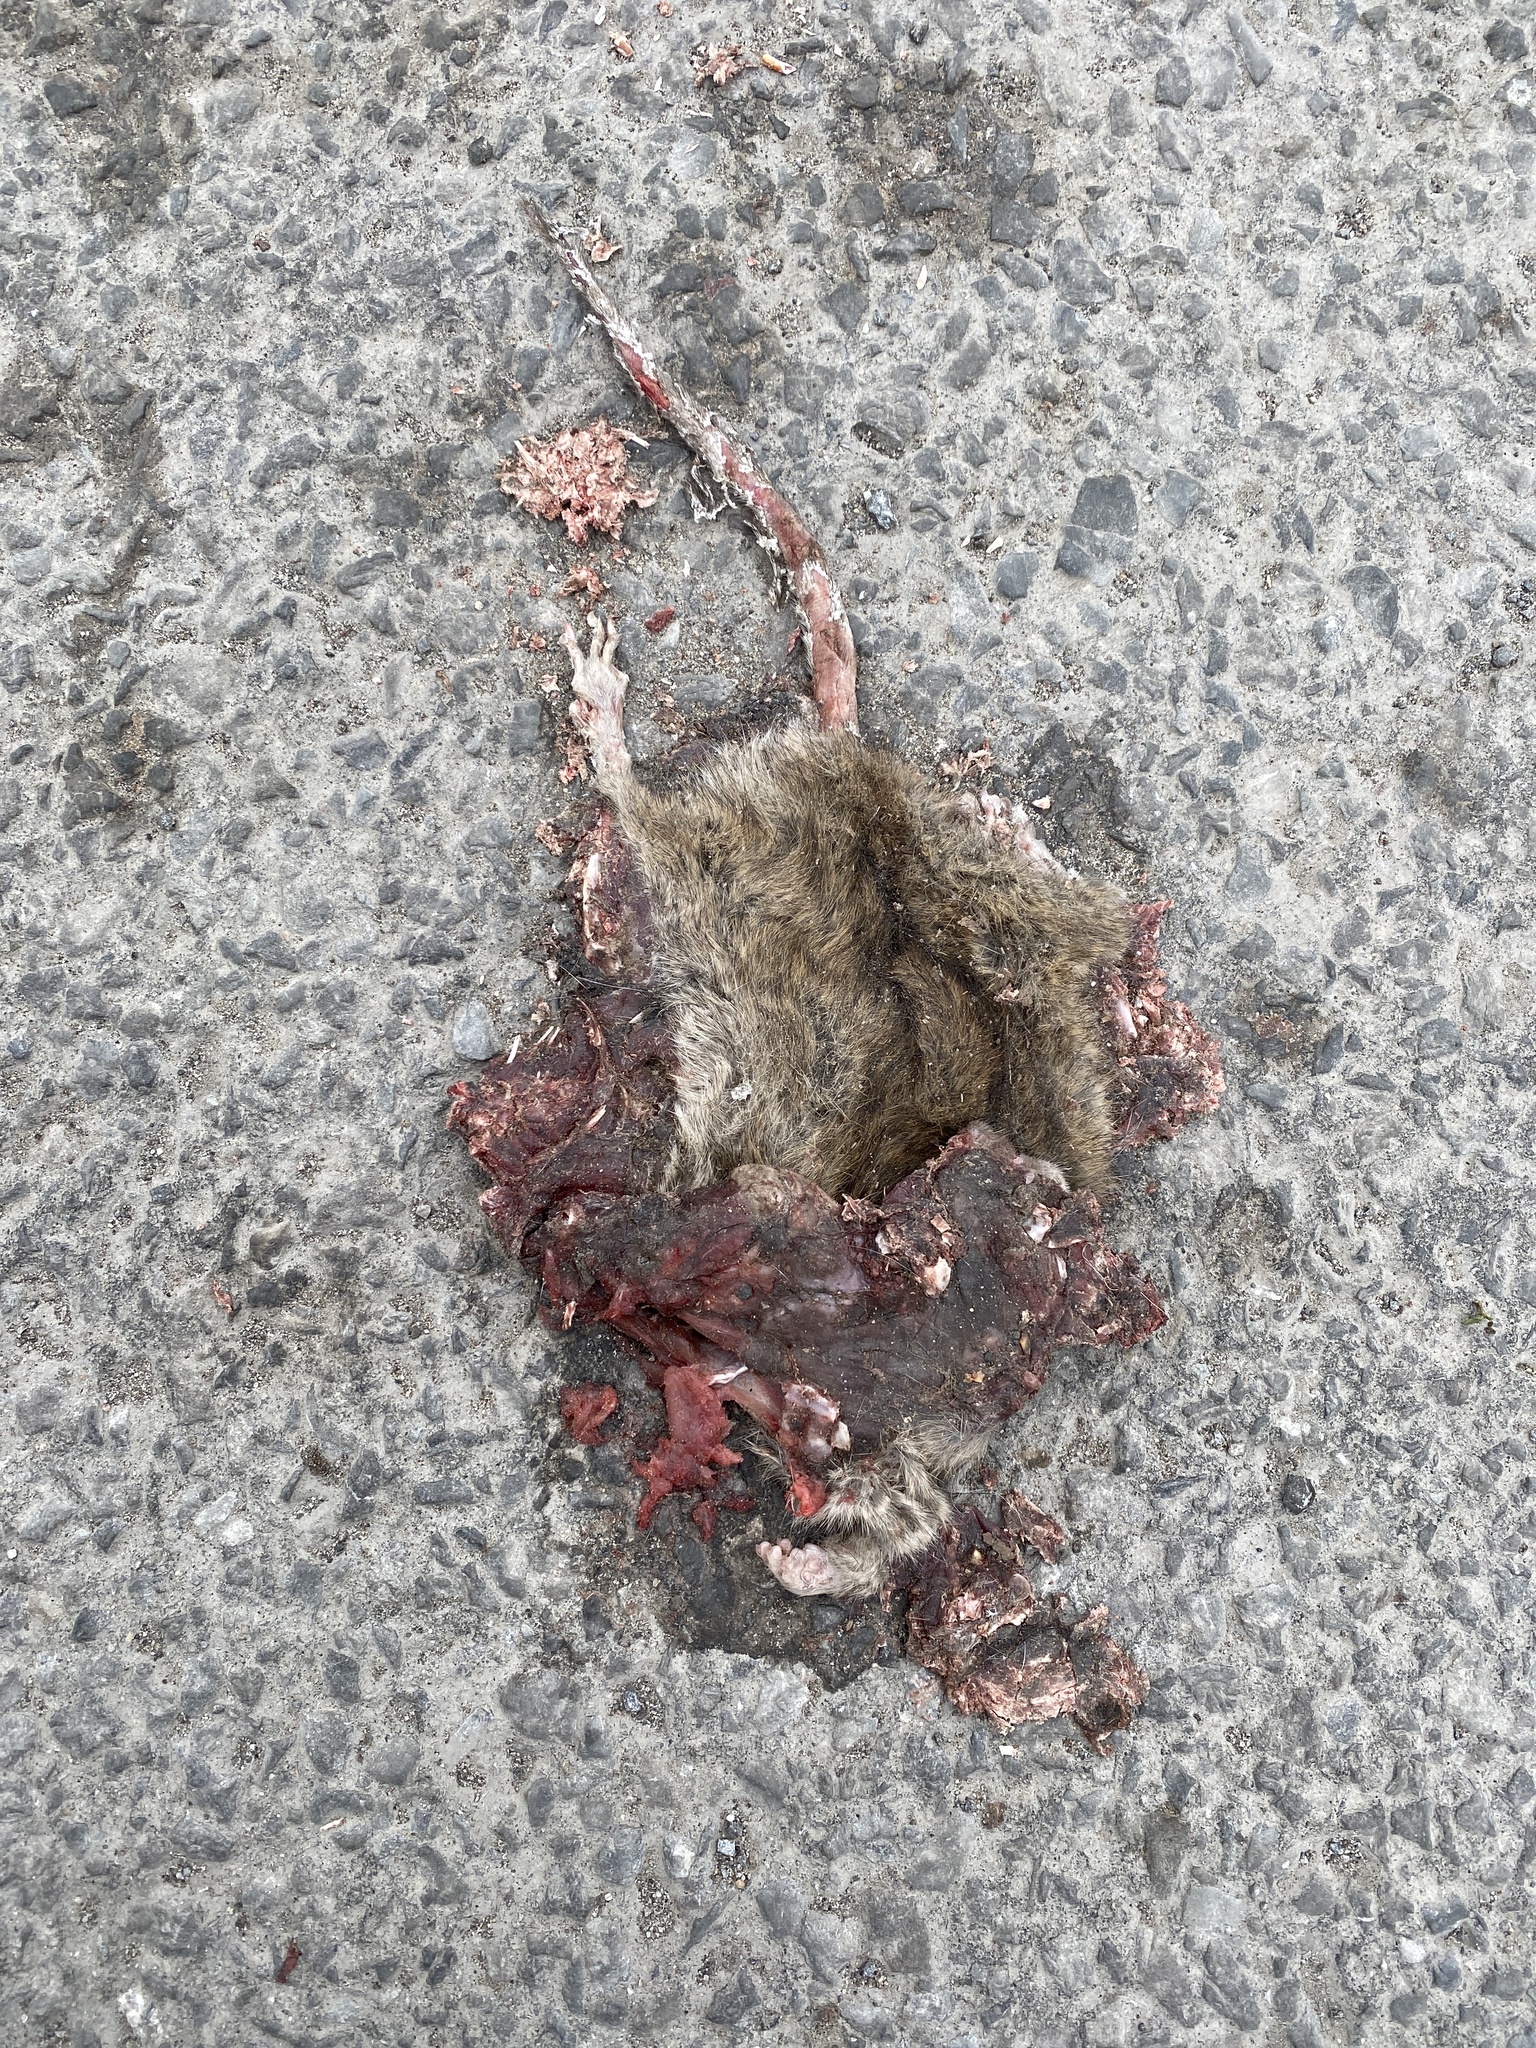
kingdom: Animalia
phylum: Chordata
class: Mammalia
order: Rodentia
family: Muridae
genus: Rattus
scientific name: Rattus norvegicus
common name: Brown rat
